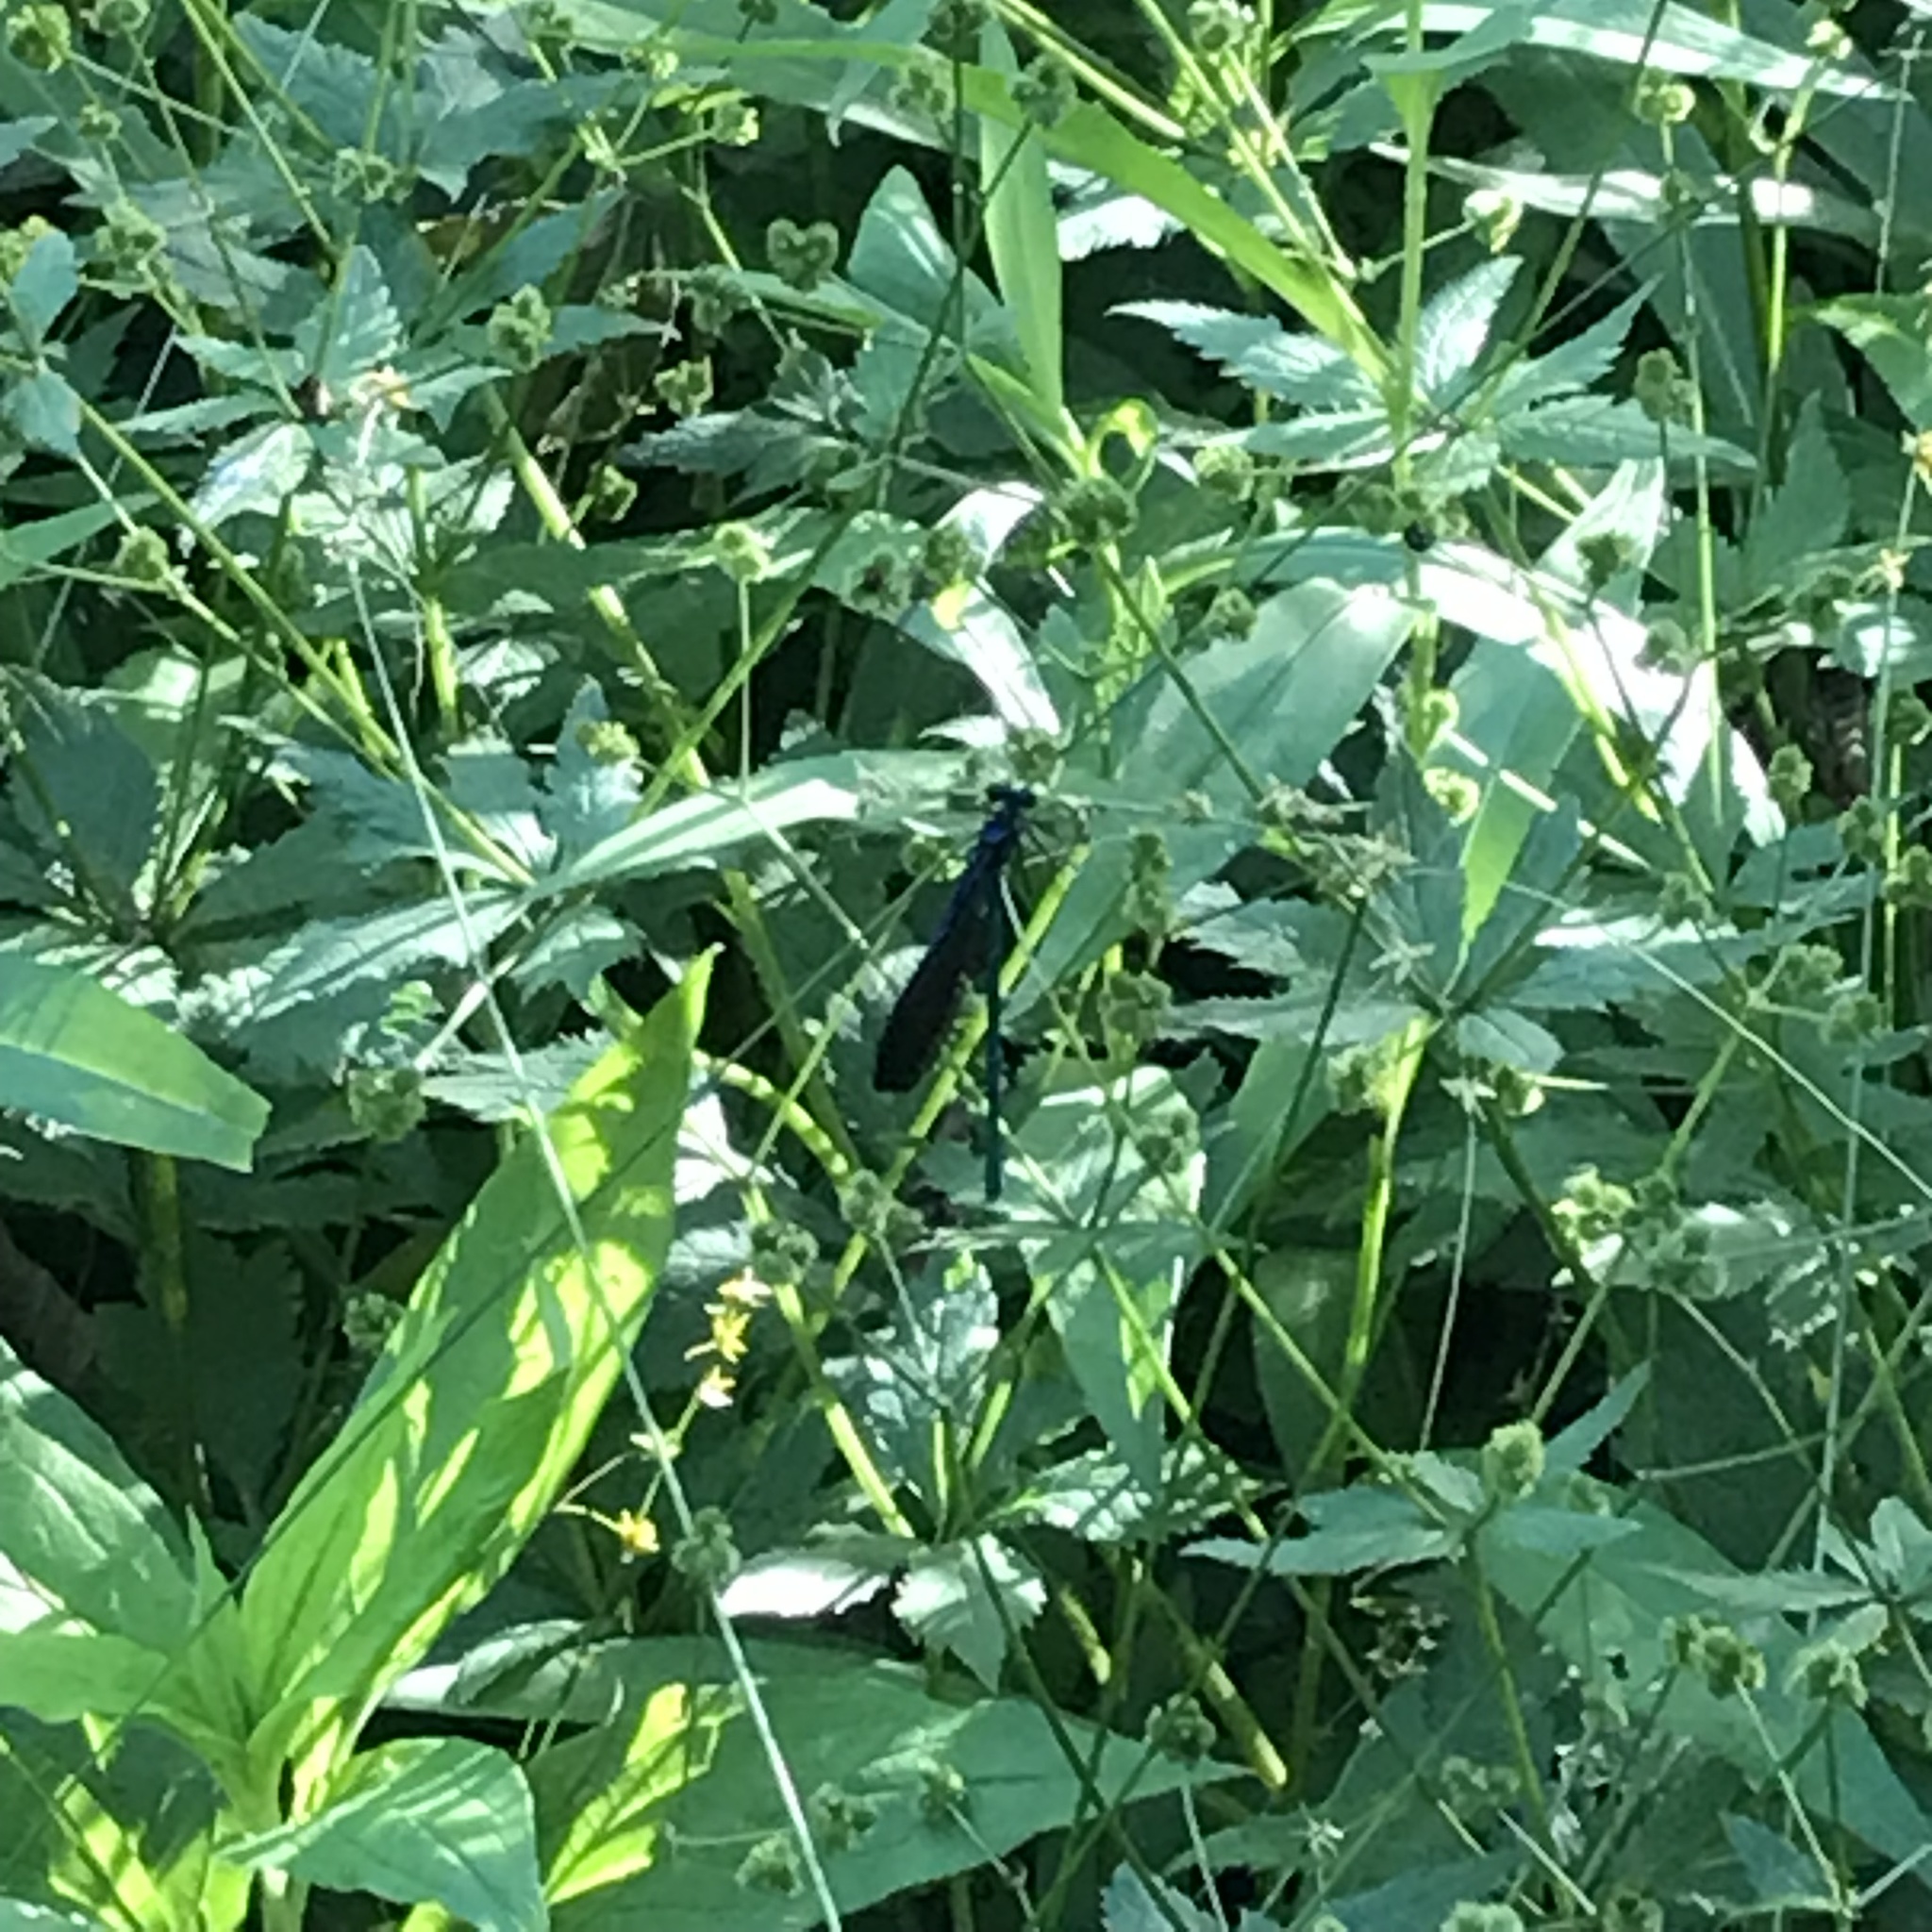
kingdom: Animalia
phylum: Arthropoda
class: Insecta
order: Odonata
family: Calopterygidae
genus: Calopteryx
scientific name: Calopteryx maculata
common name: Ebony jewelwing
